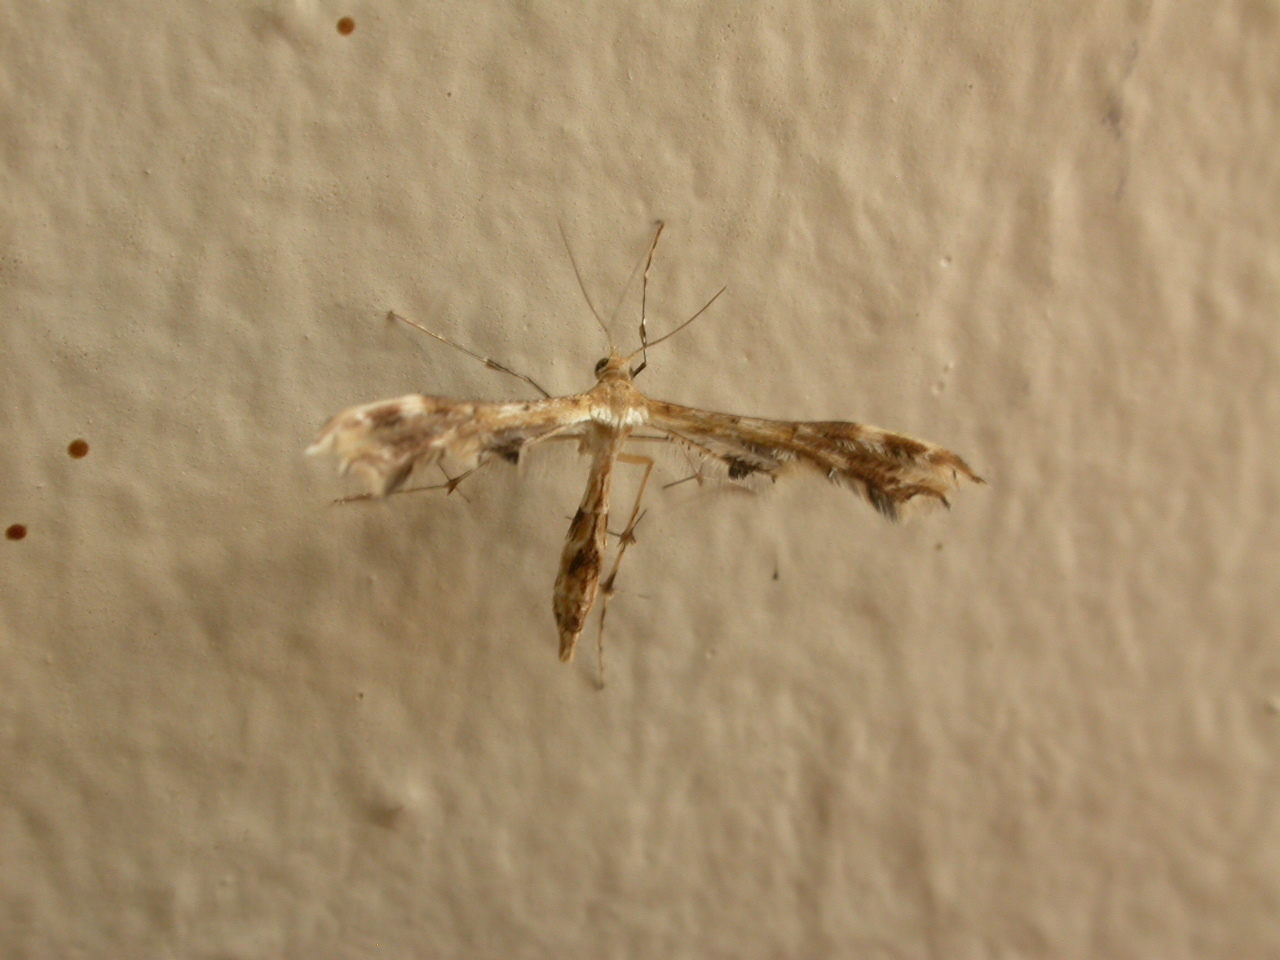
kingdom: Animalia
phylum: Arthropoda
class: Insecta
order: Lepidoptera
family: Pterophoridae
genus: Sphenarches
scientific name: Sphenarches anisodactylus
